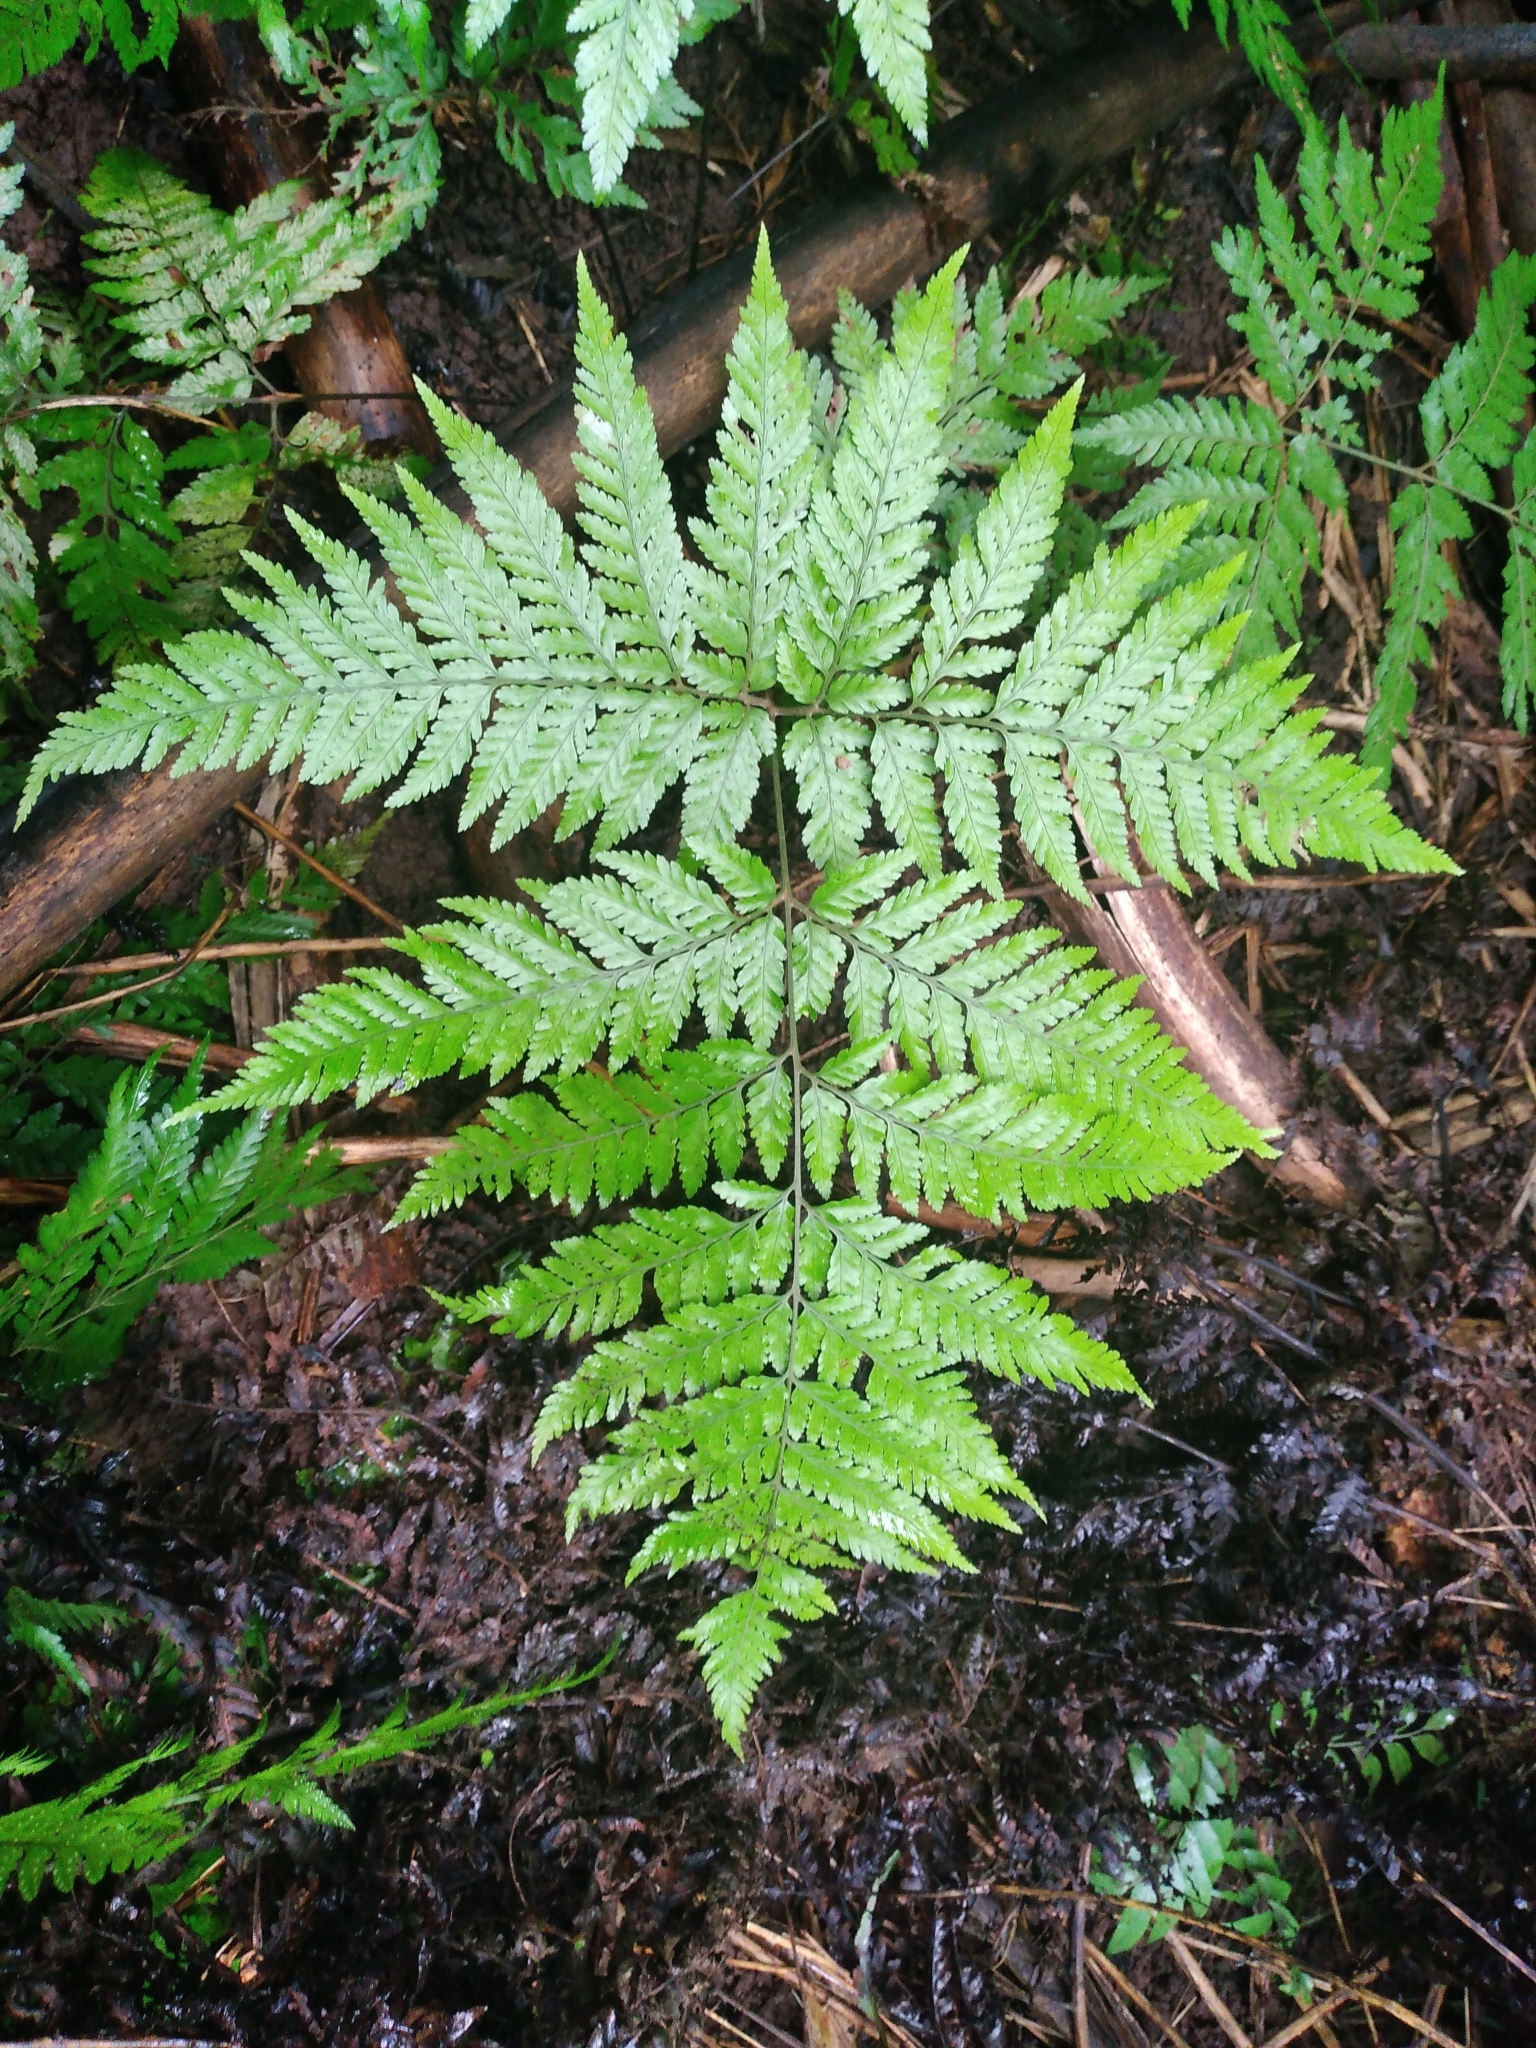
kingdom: Plantae
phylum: Tracheophyta
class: Polypodiopsida
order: Polypodiales
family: Dryopteridaceae
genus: Parapolystichum
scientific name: Parapolystichum calanthum
